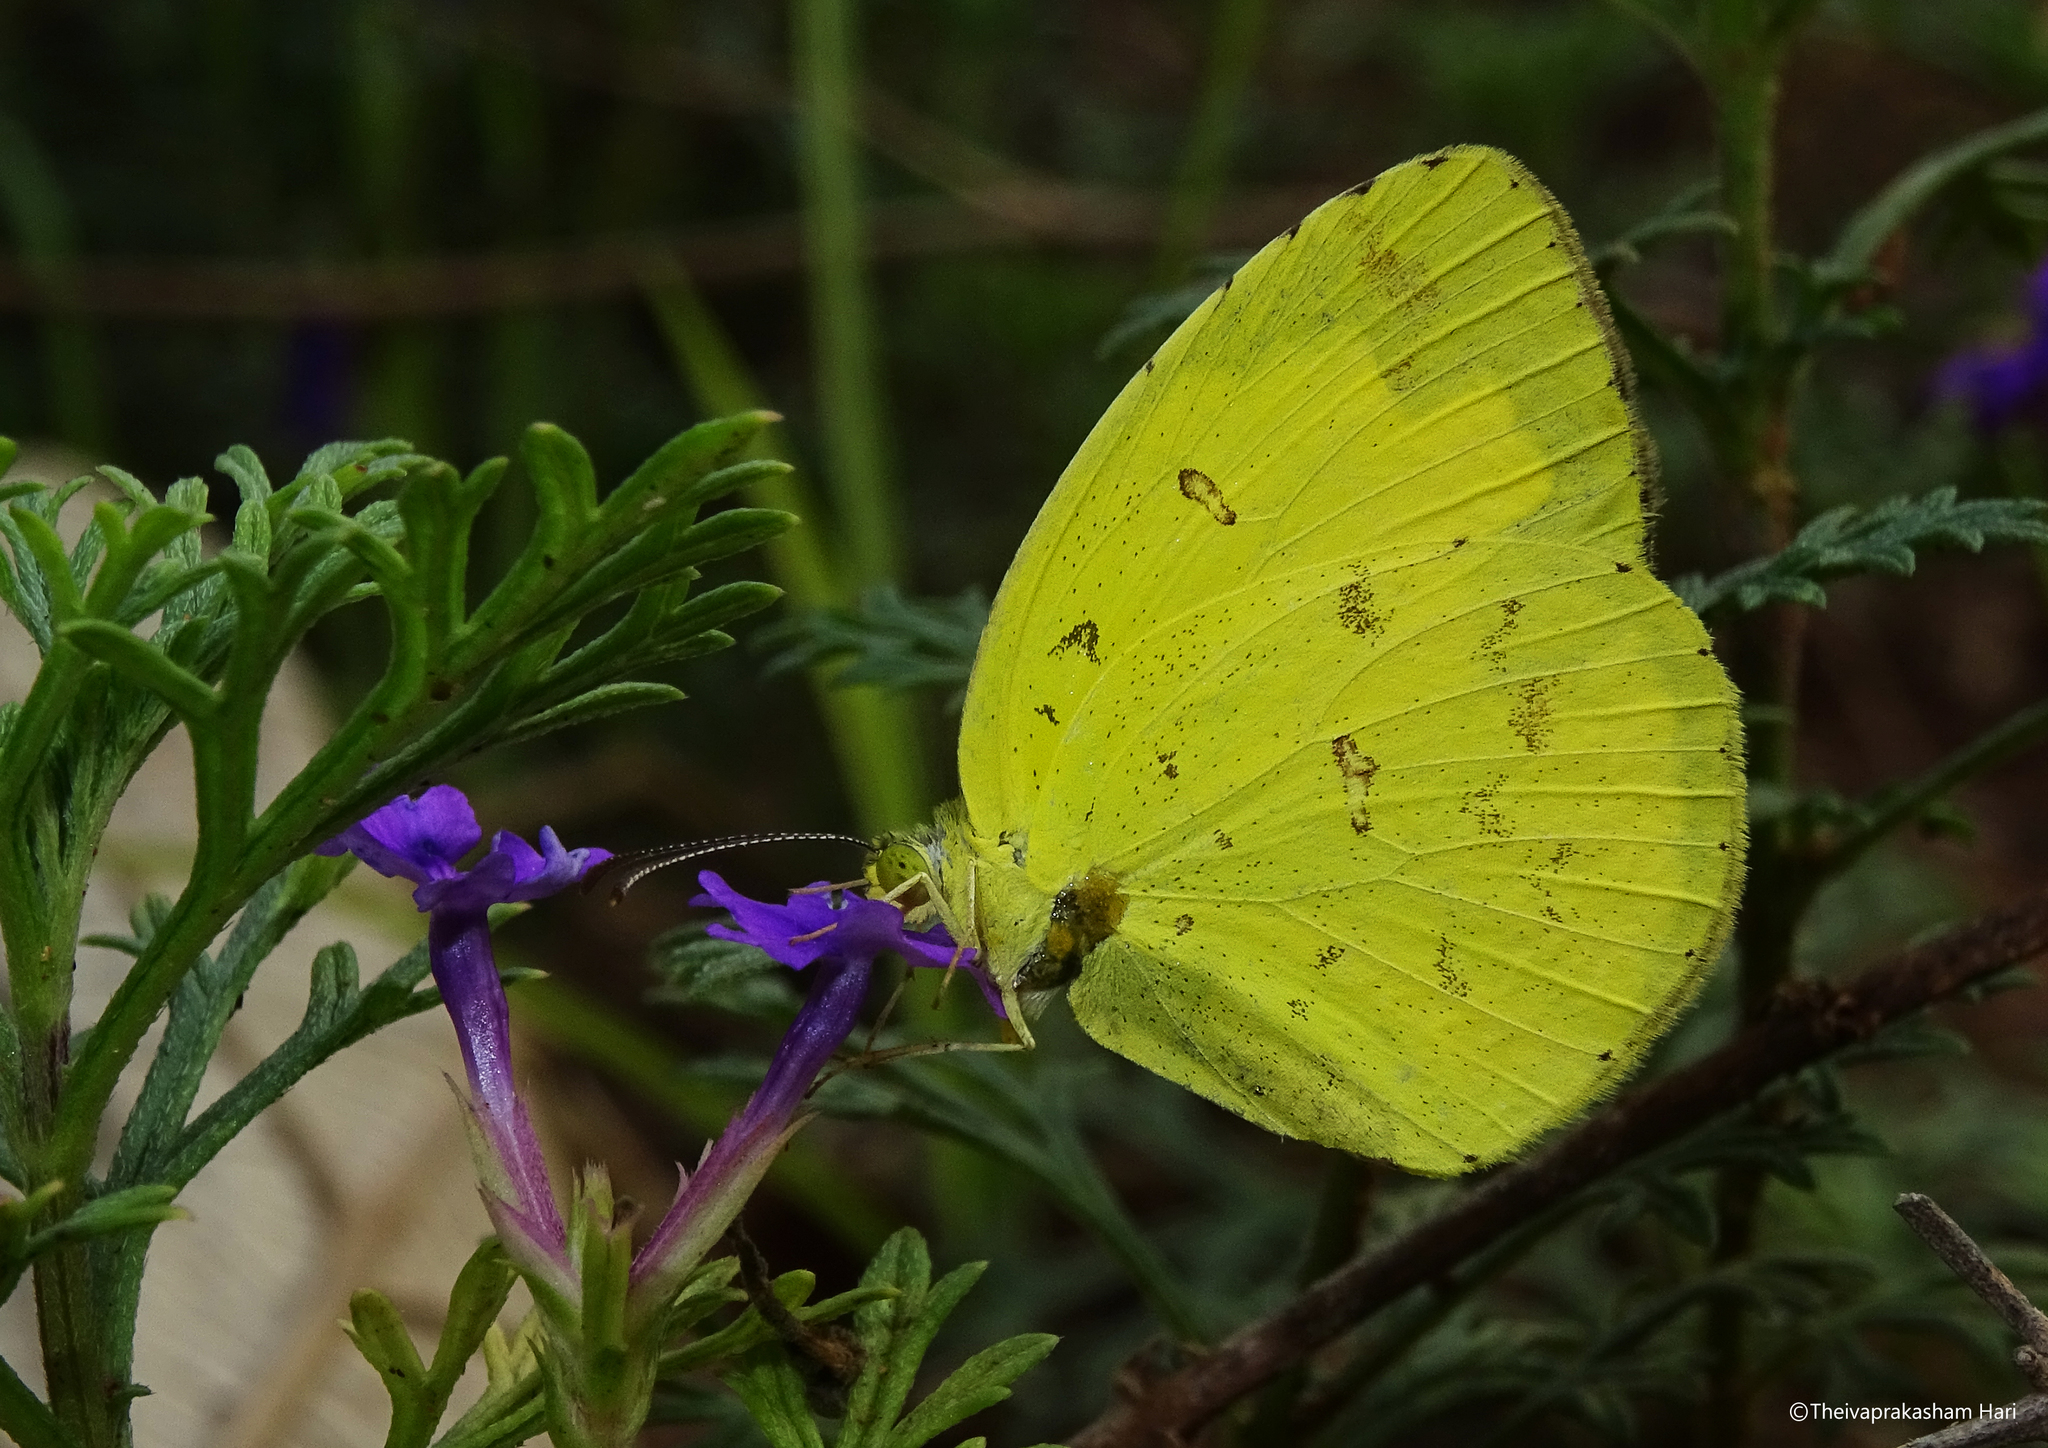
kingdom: Animalia
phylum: Arthropoda
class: Insecta
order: Lepidoptera
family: Pieridae
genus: Eurema
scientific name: Eurema hecabe
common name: Pale grass yellow
